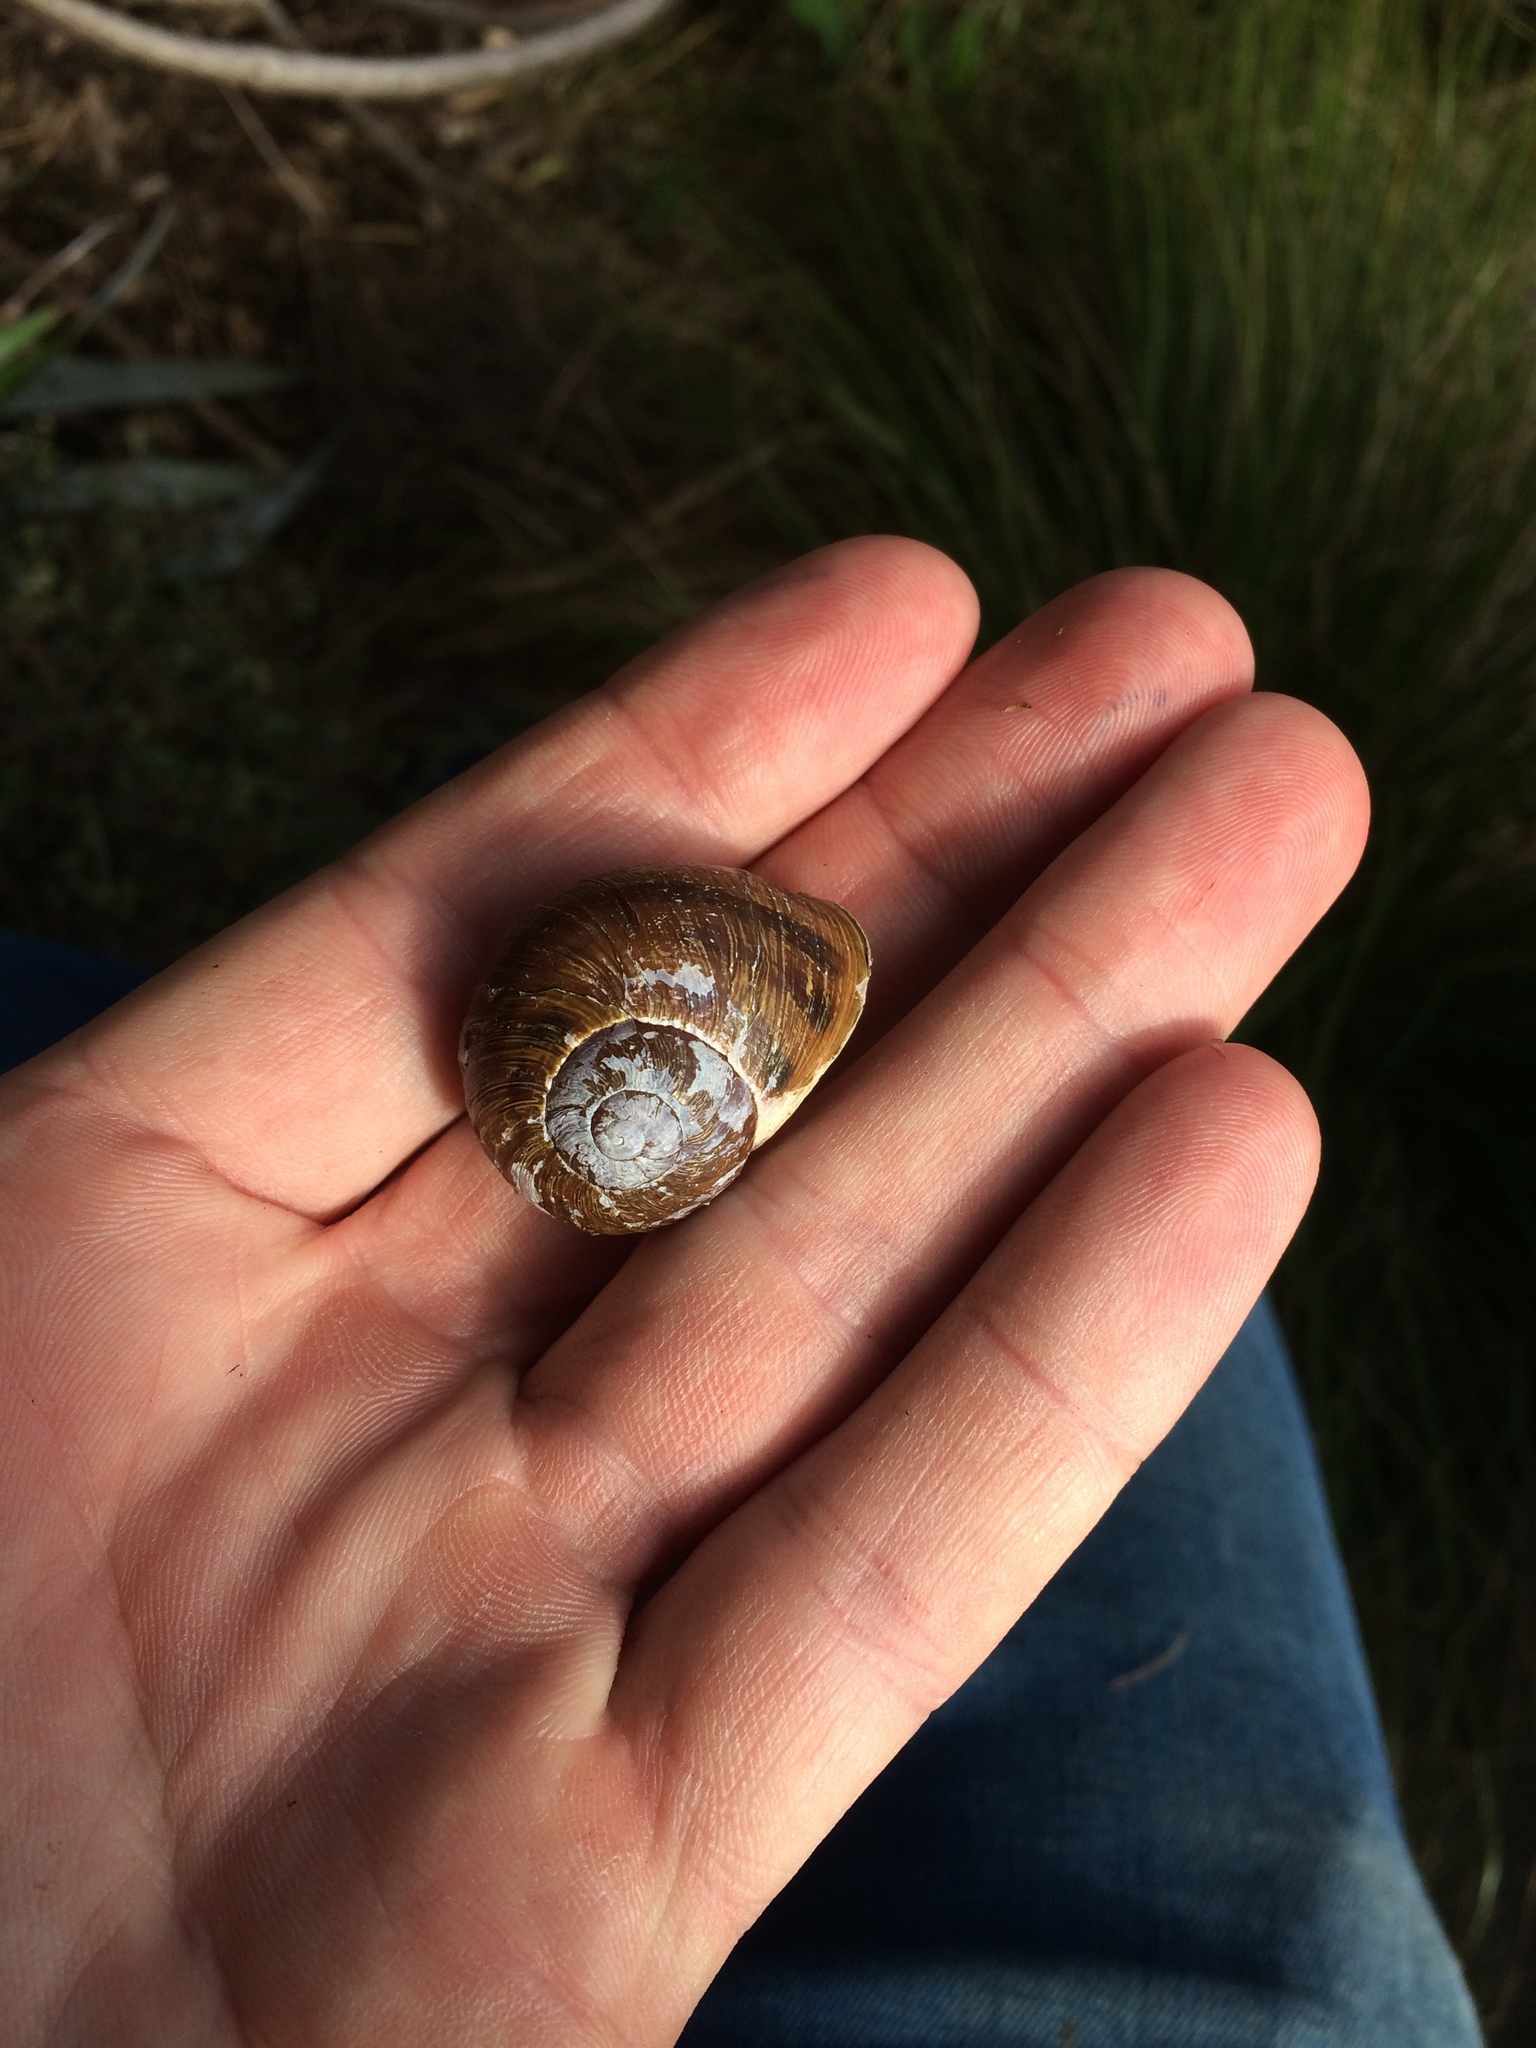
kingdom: Animalia
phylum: Mollusca
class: Gastropoda
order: Stylommatophora
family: Helicidae
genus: Cornu
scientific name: Cornu aspersum
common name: Brown garden snail
